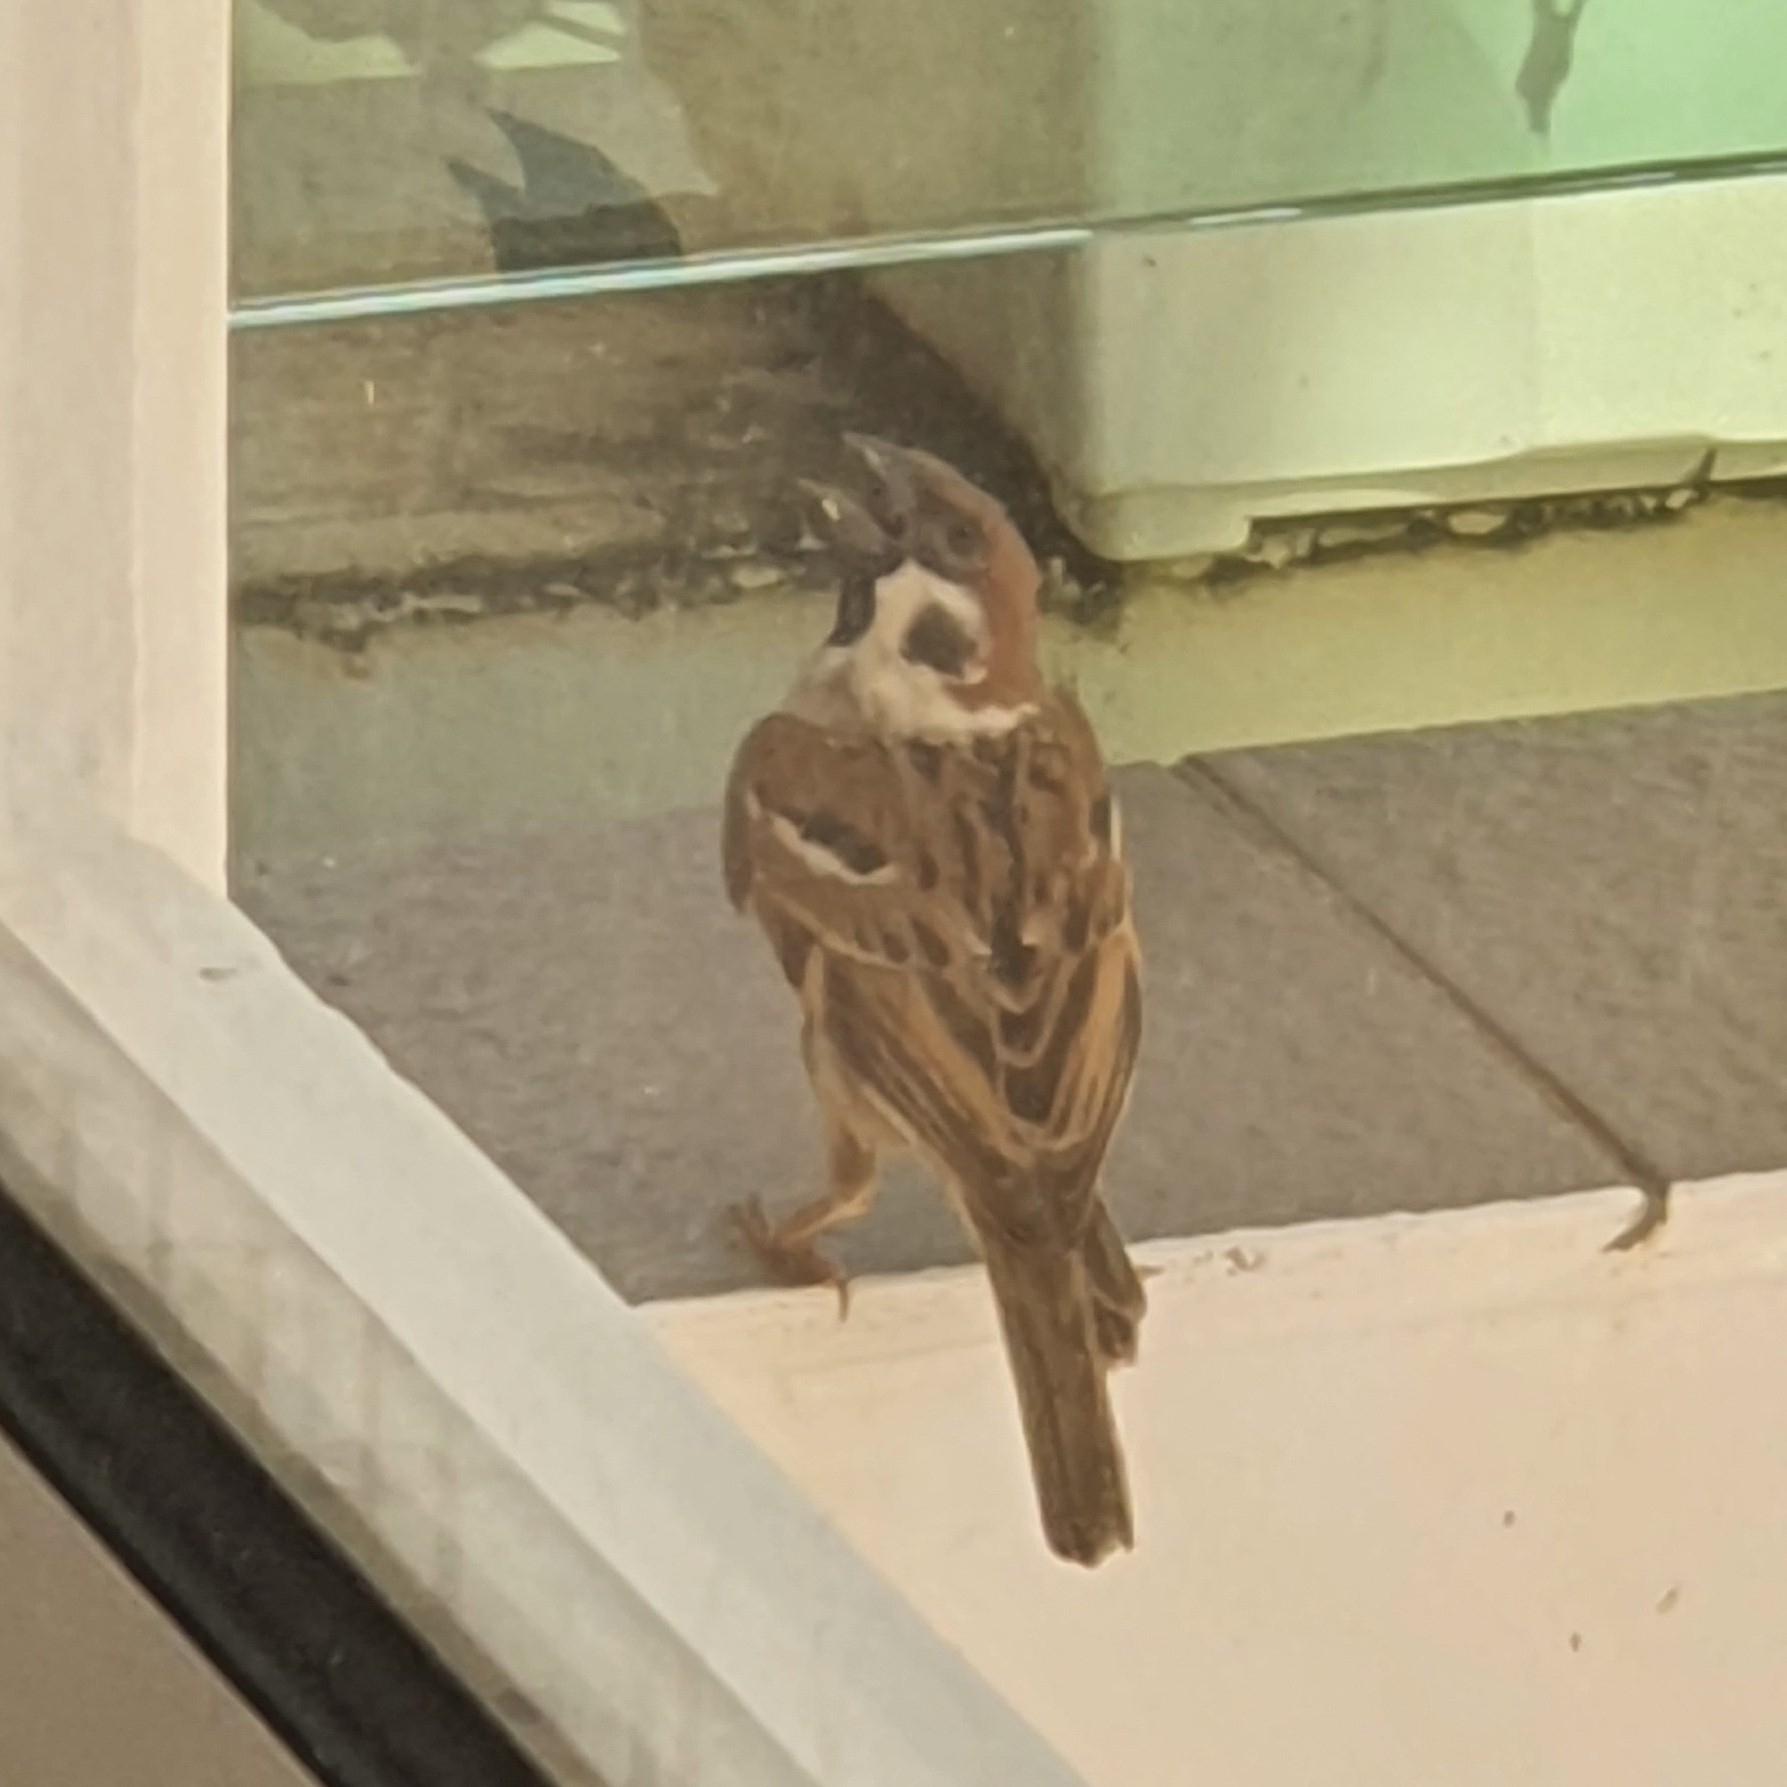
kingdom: Animalia
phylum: Chordata
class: Aves
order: Passeriformes
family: Passeridae
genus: Passer
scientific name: Passer montanus
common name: Eurasian tree sparrow
